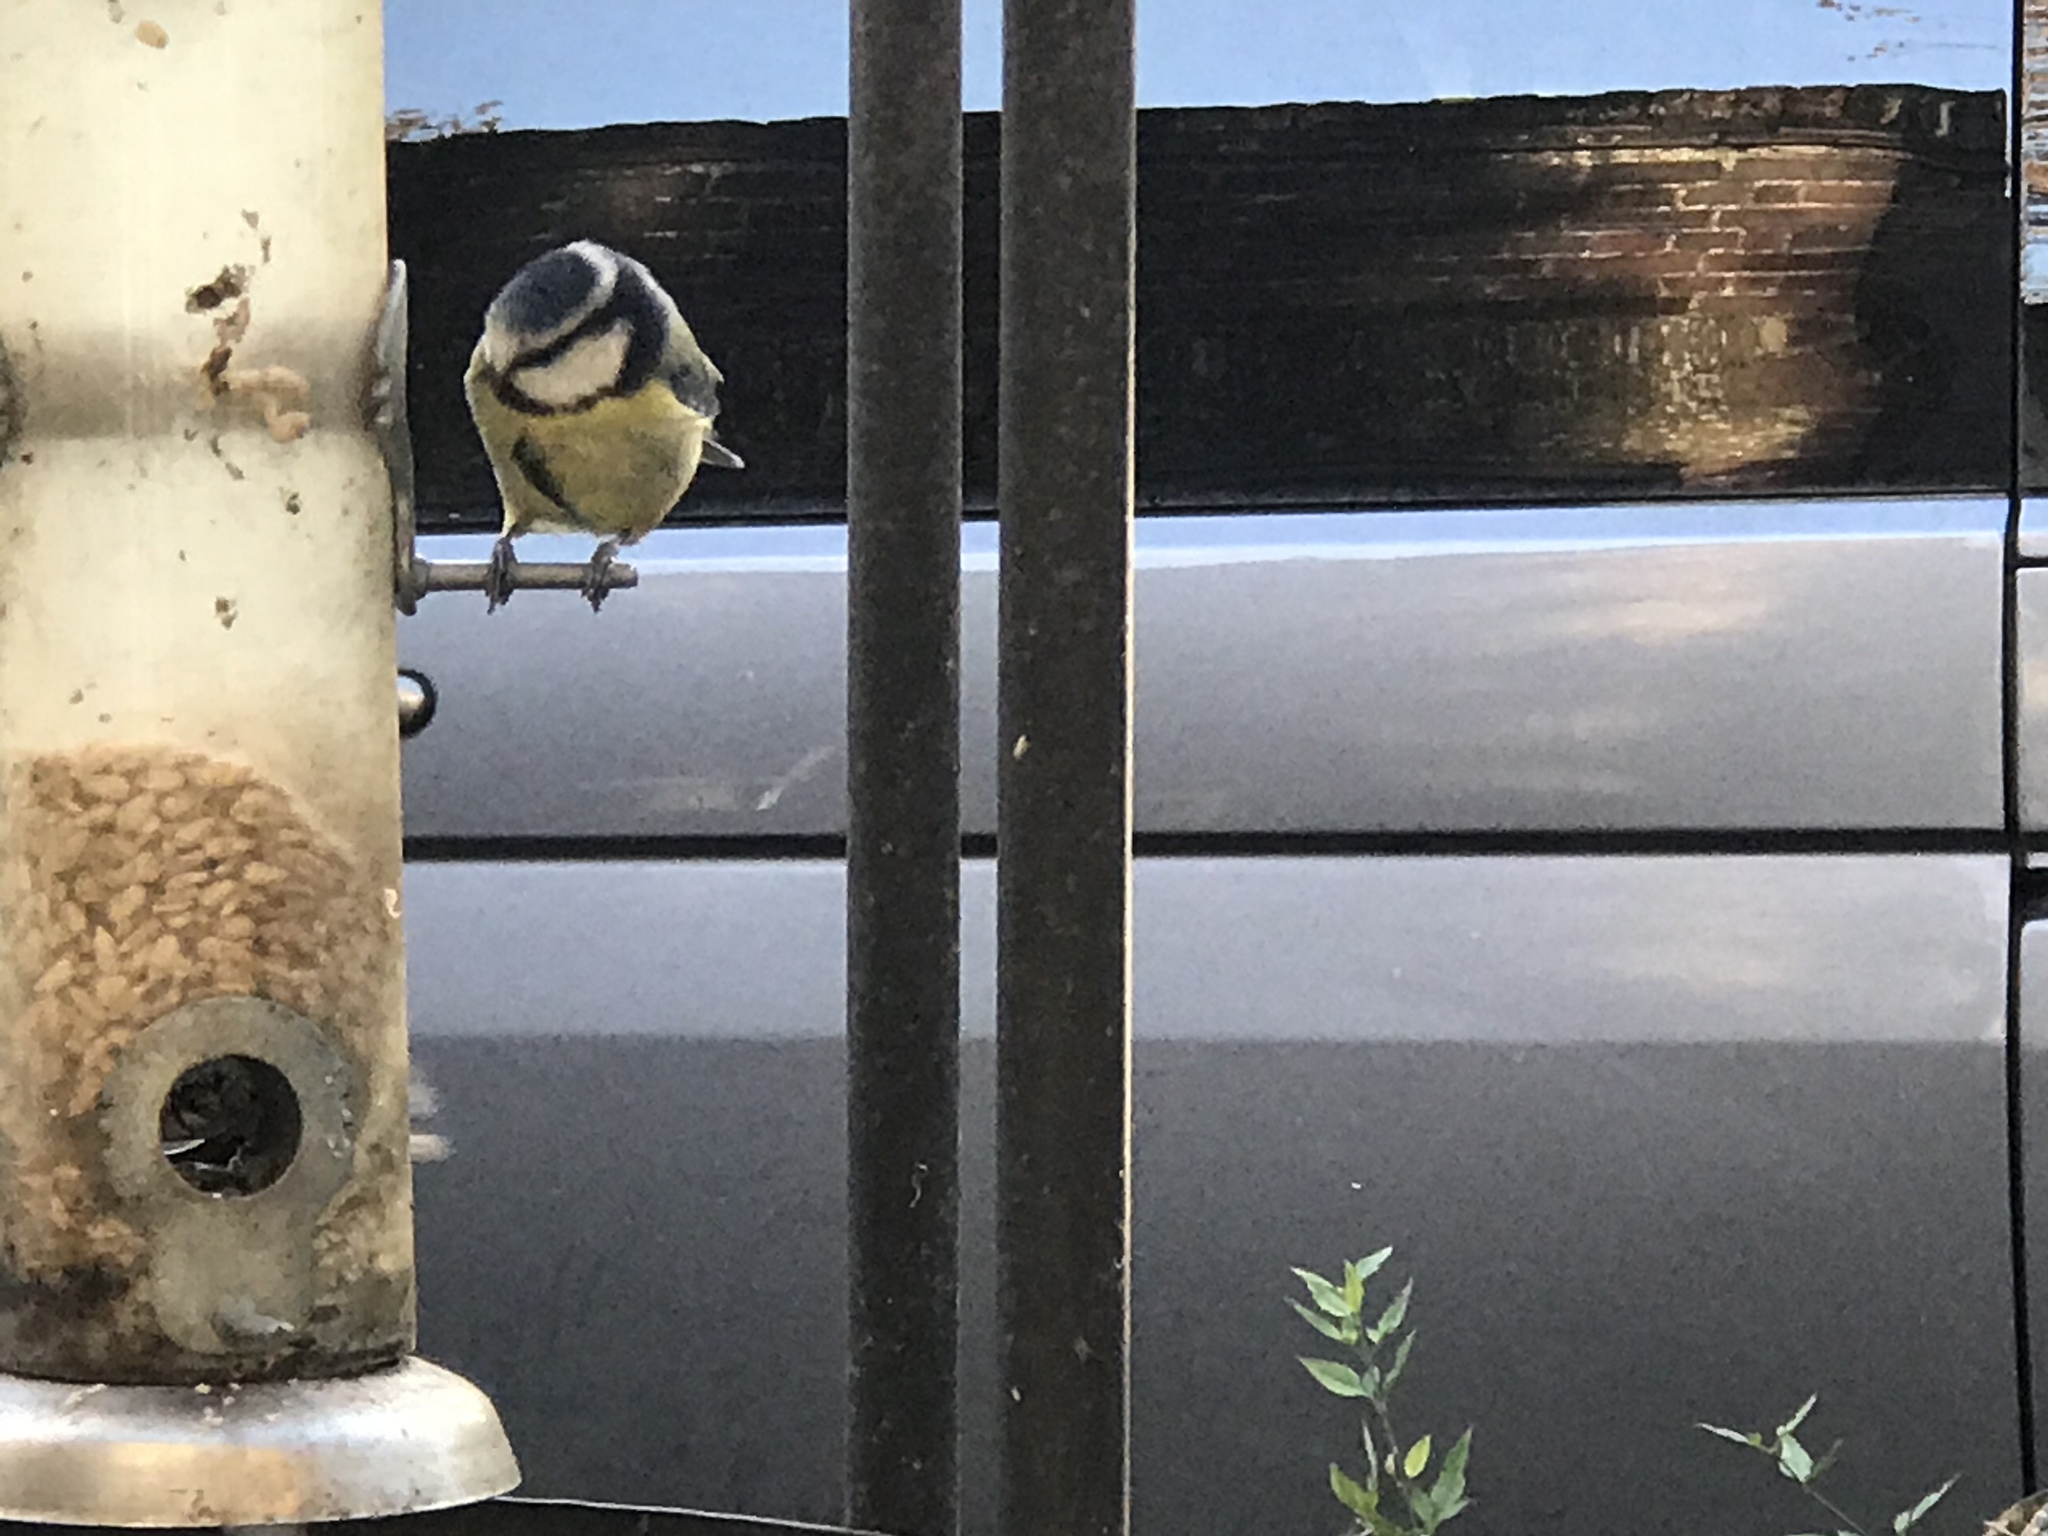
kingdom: Animalia
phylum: Chordata
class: Aves
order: Passeriformes
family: Paridae
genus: Cyanistes
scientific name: Cyanistes caeruleus
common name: Eurasian blue tit
